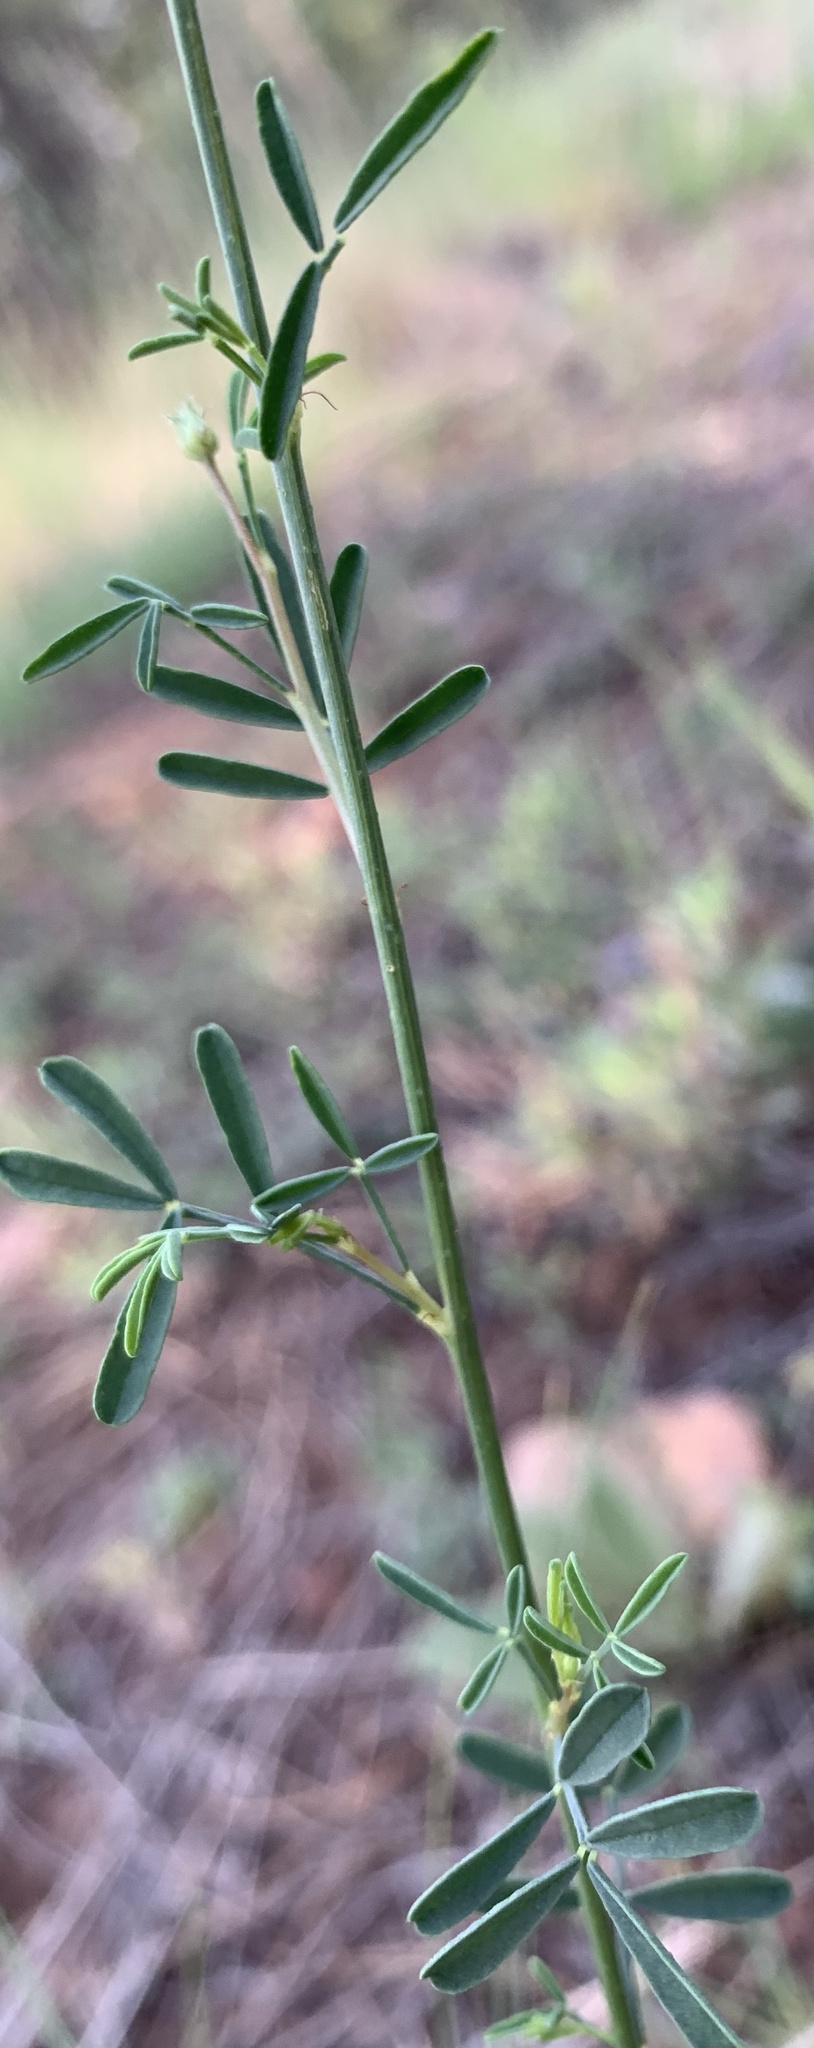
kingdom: Plantae
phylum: Tracheophyta
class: Magnoliopsida
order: Fabales
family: Fabaceae
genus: Dalea
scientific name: Dalea candida
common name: White prairie-clover
